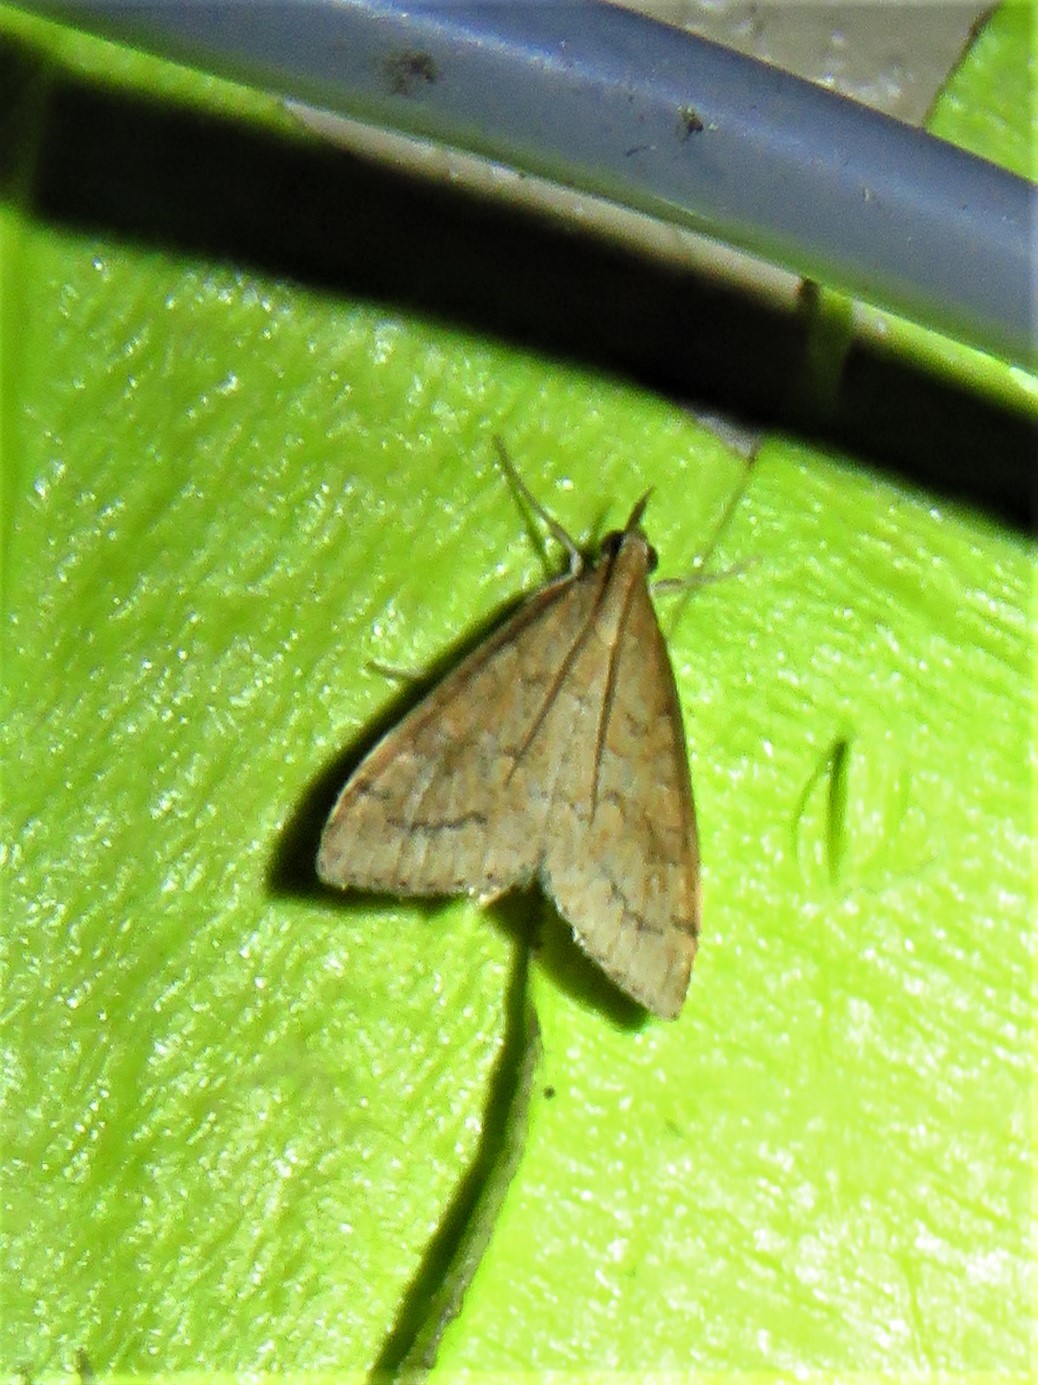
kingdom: Animalia
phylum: Arthropoda
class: Insecta
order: Lepidoptera
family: Crambidae
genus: Udea
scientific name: Udea rubigalis
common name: Celery leaftier moth
